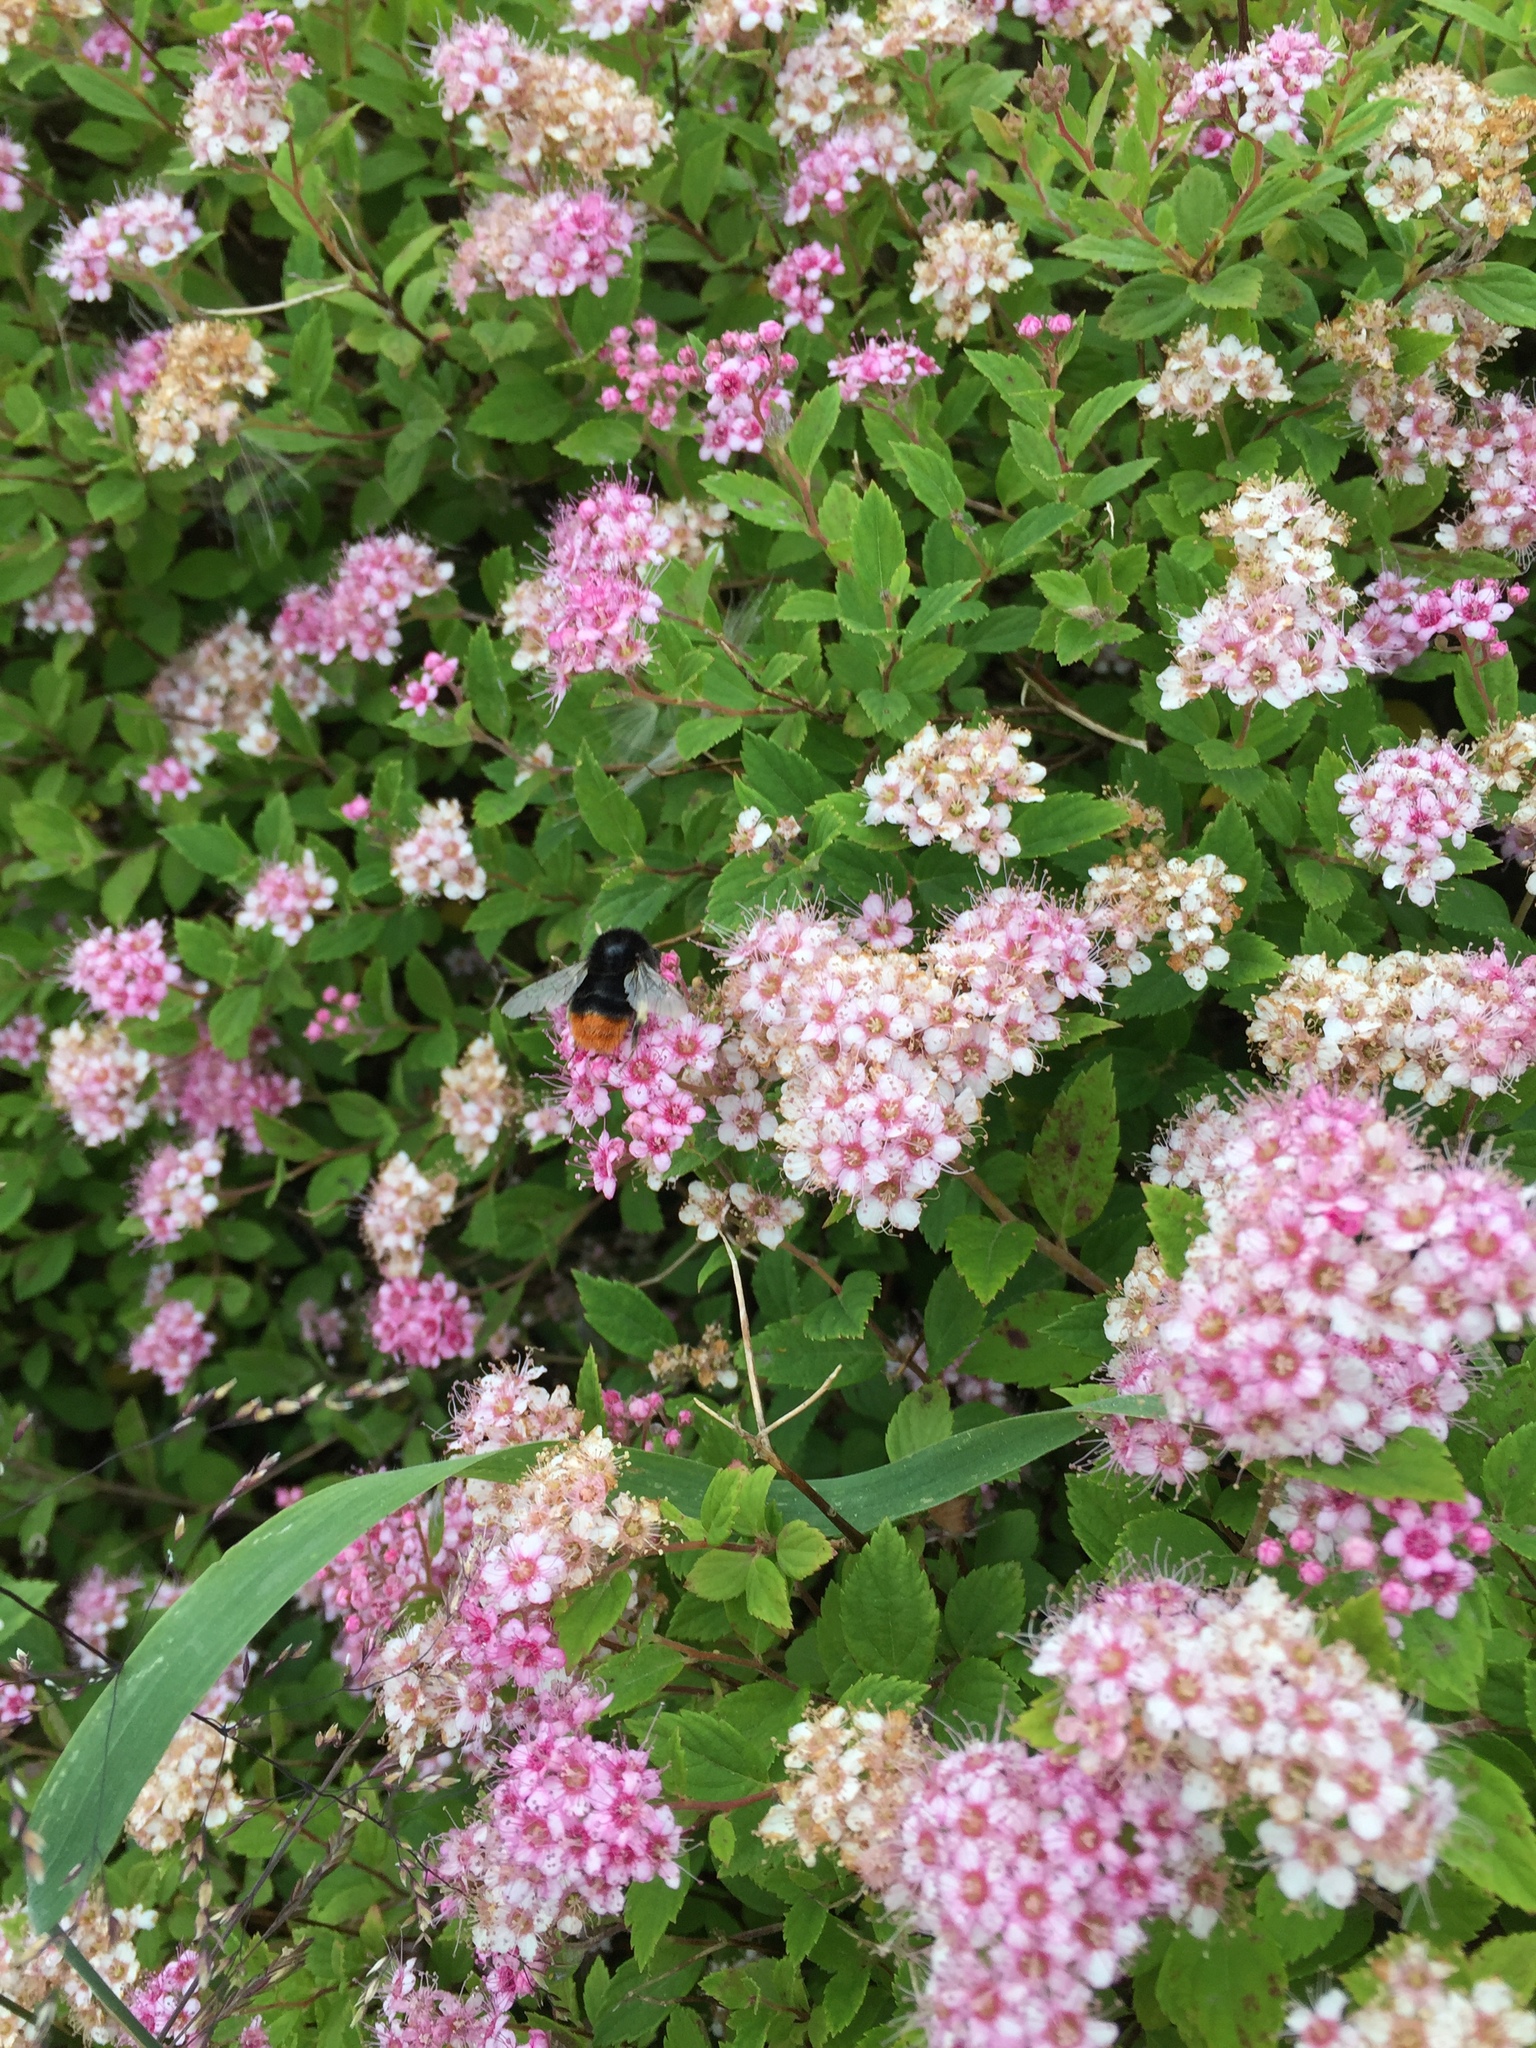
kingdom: Animalia
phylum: Arthropoda
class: Insecta
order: Hymenoptera
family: Apidae
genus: Bombus
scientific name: Bombus lapidarius
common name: Large red-tailed humble-bee
